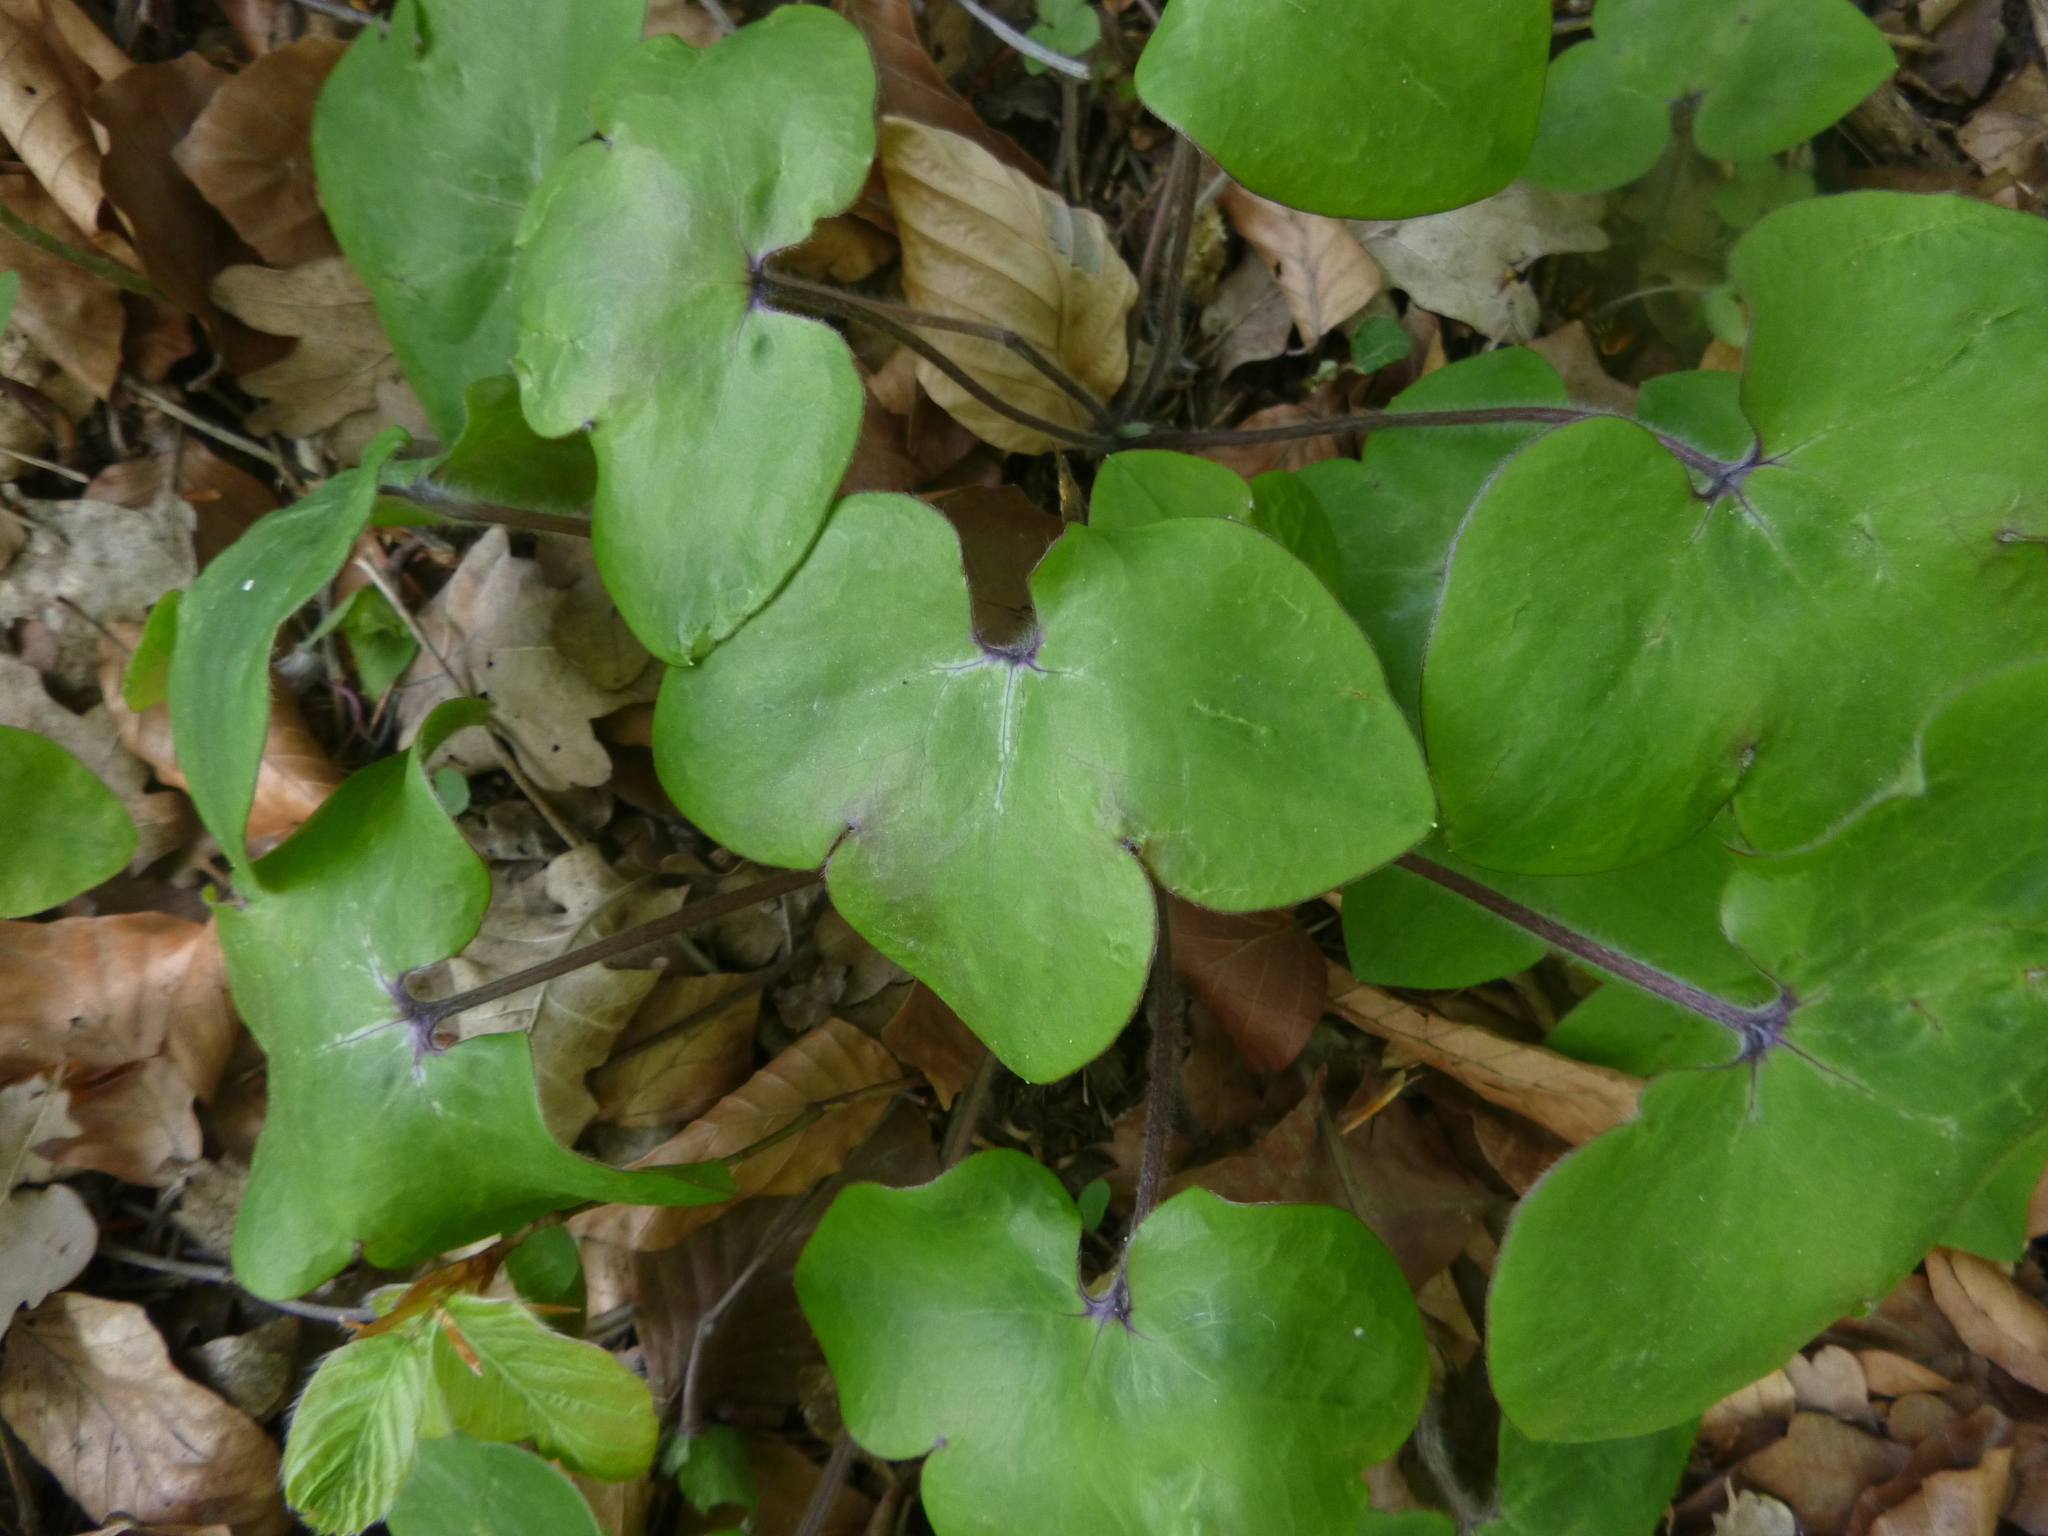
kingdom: Plantae
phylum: Tracheophyta
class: Magnoliopsida
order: Ranunculales
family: Ranunculaceae
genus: Hepatica
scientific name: Hepatica nobilis
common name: Liverleaf
